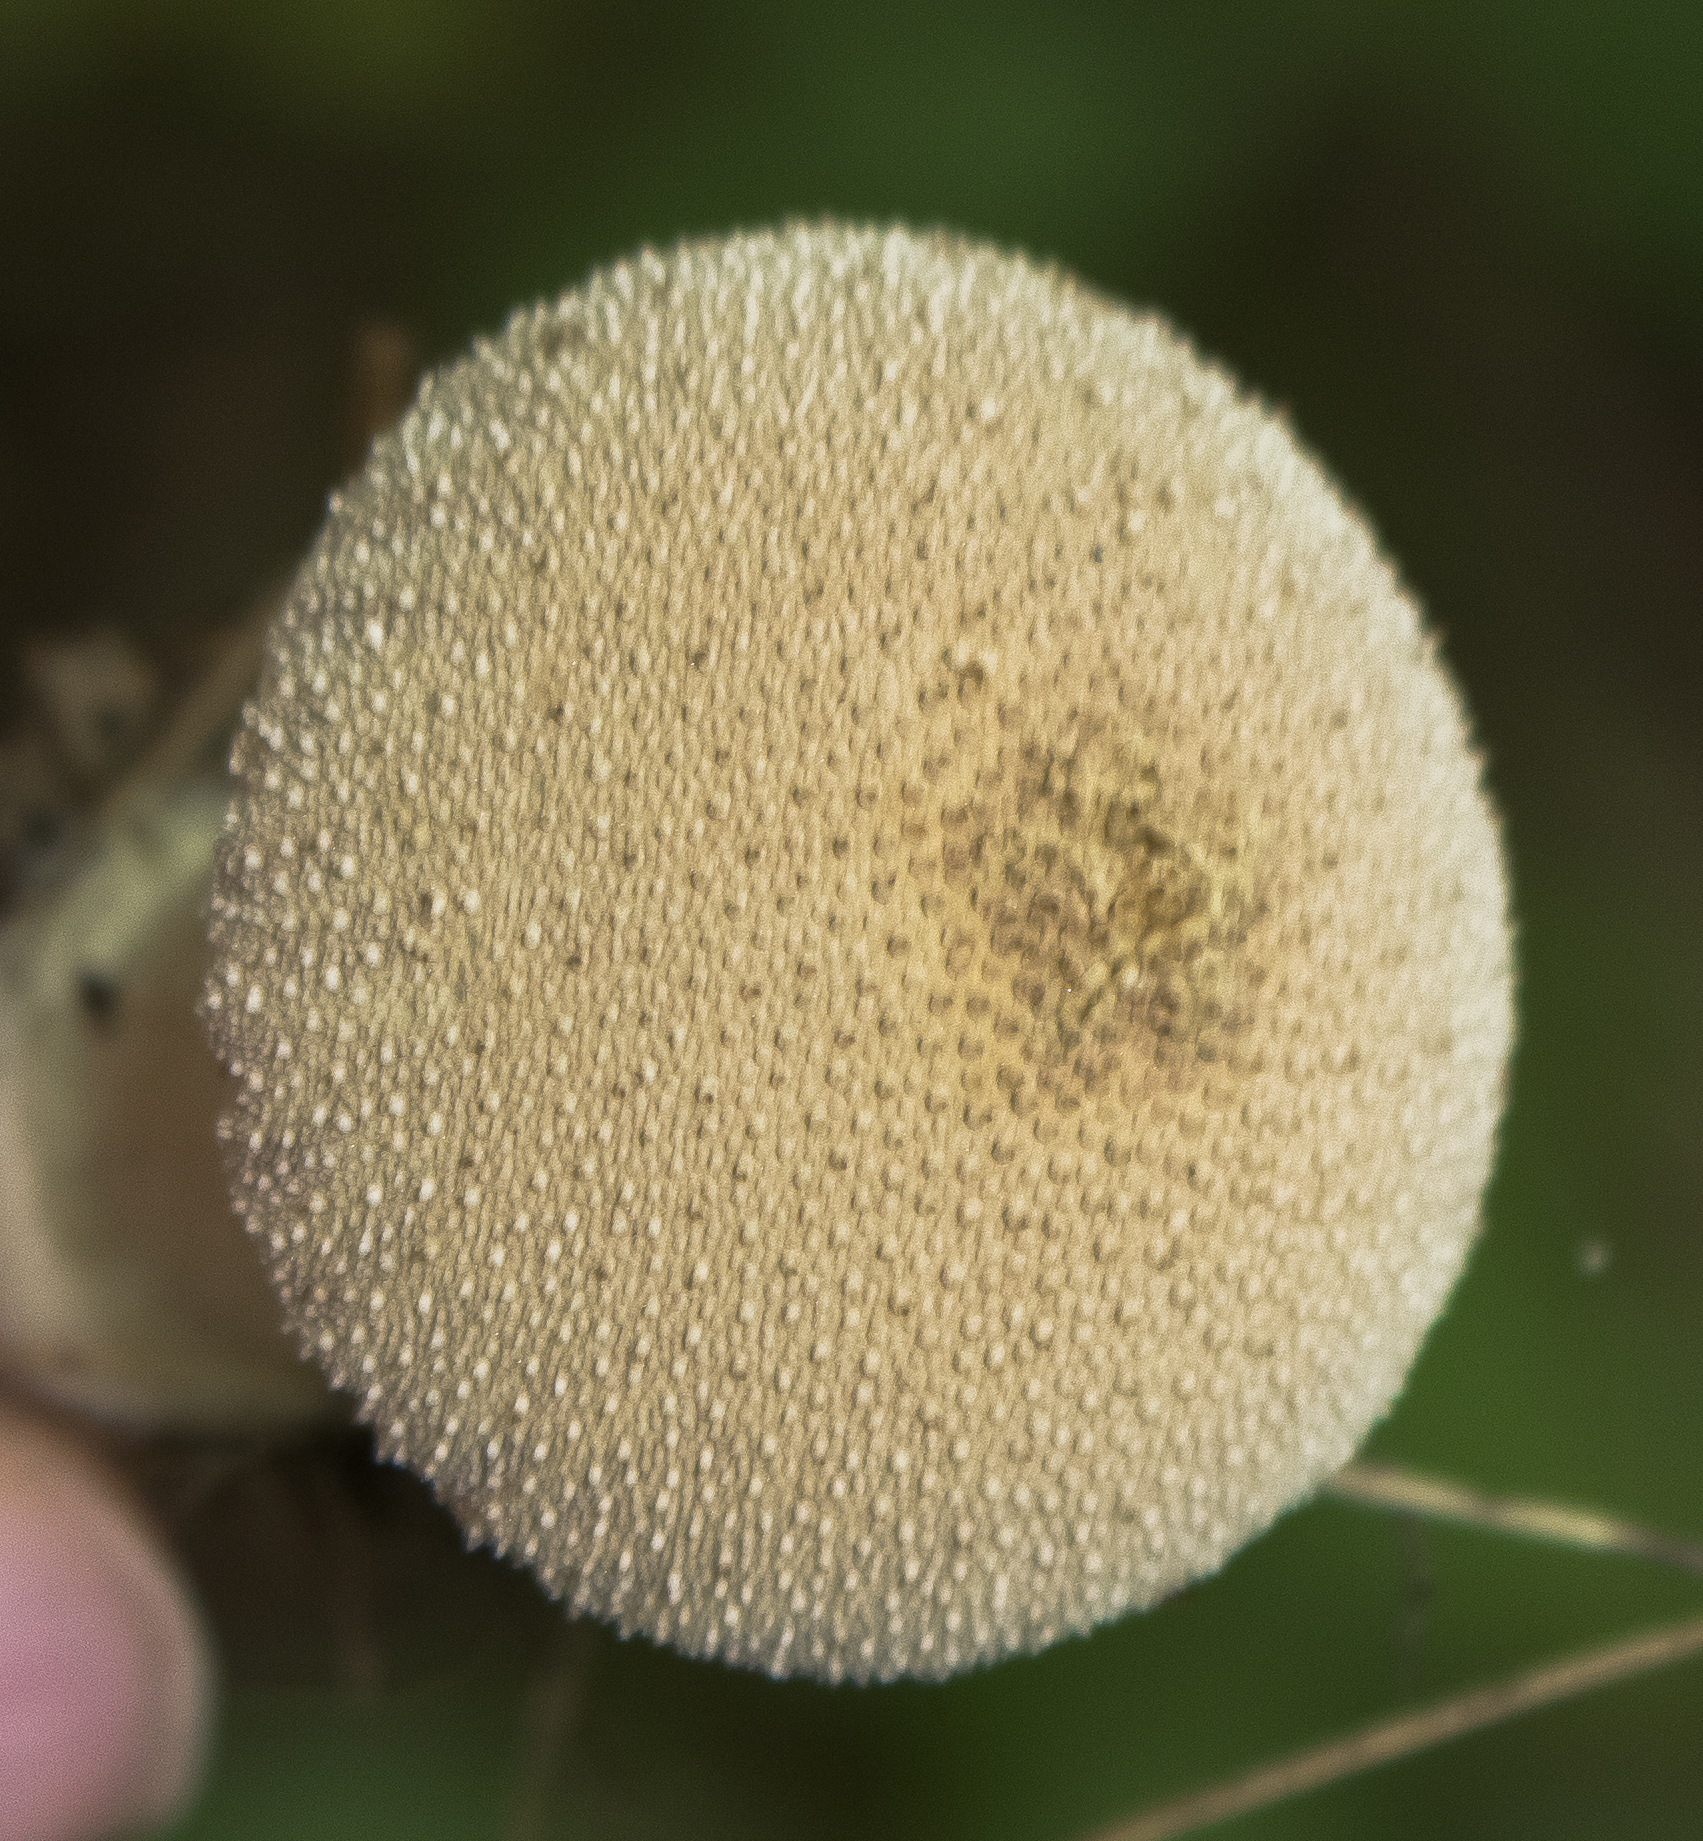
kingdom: Fungi
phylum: Basidiomycota
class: Agaricomycetes
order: Agaricales
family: Lycoperdaceae
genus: Lycoperdon
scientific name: Lycoperdon perlatum
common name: Common puffball
